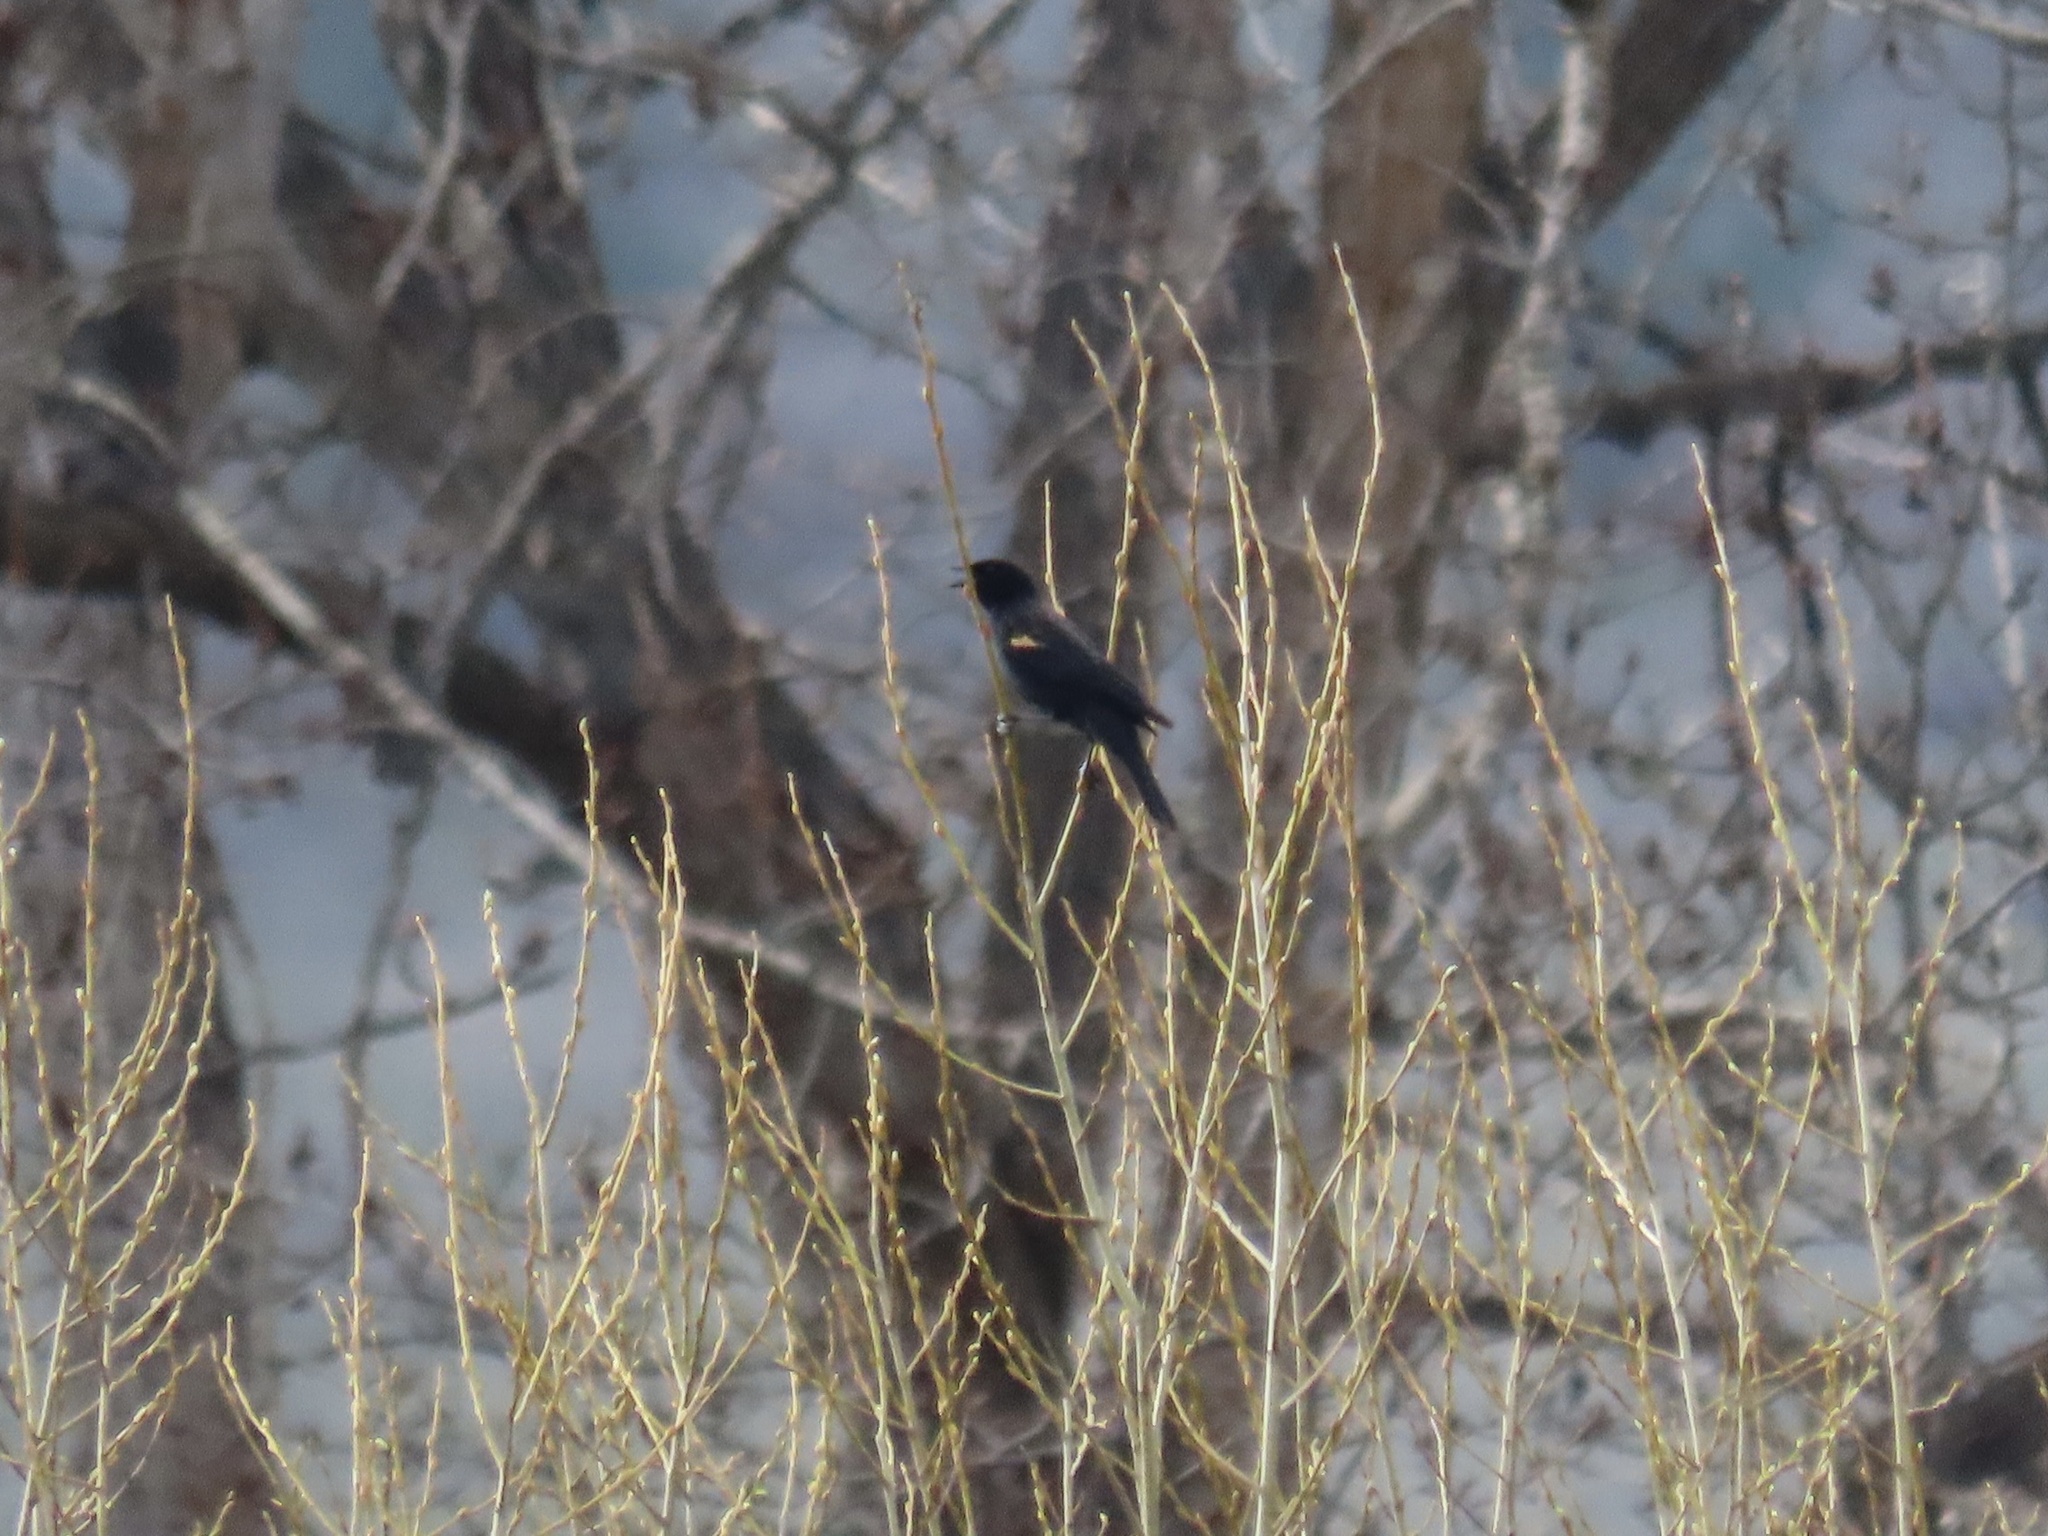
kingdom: Animalia
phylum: Chordata
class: Aves
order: Passeriformes
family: Icteridae
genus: Agelaius
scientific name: Agelaius phoeniceus
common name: Red-winged blackbird
